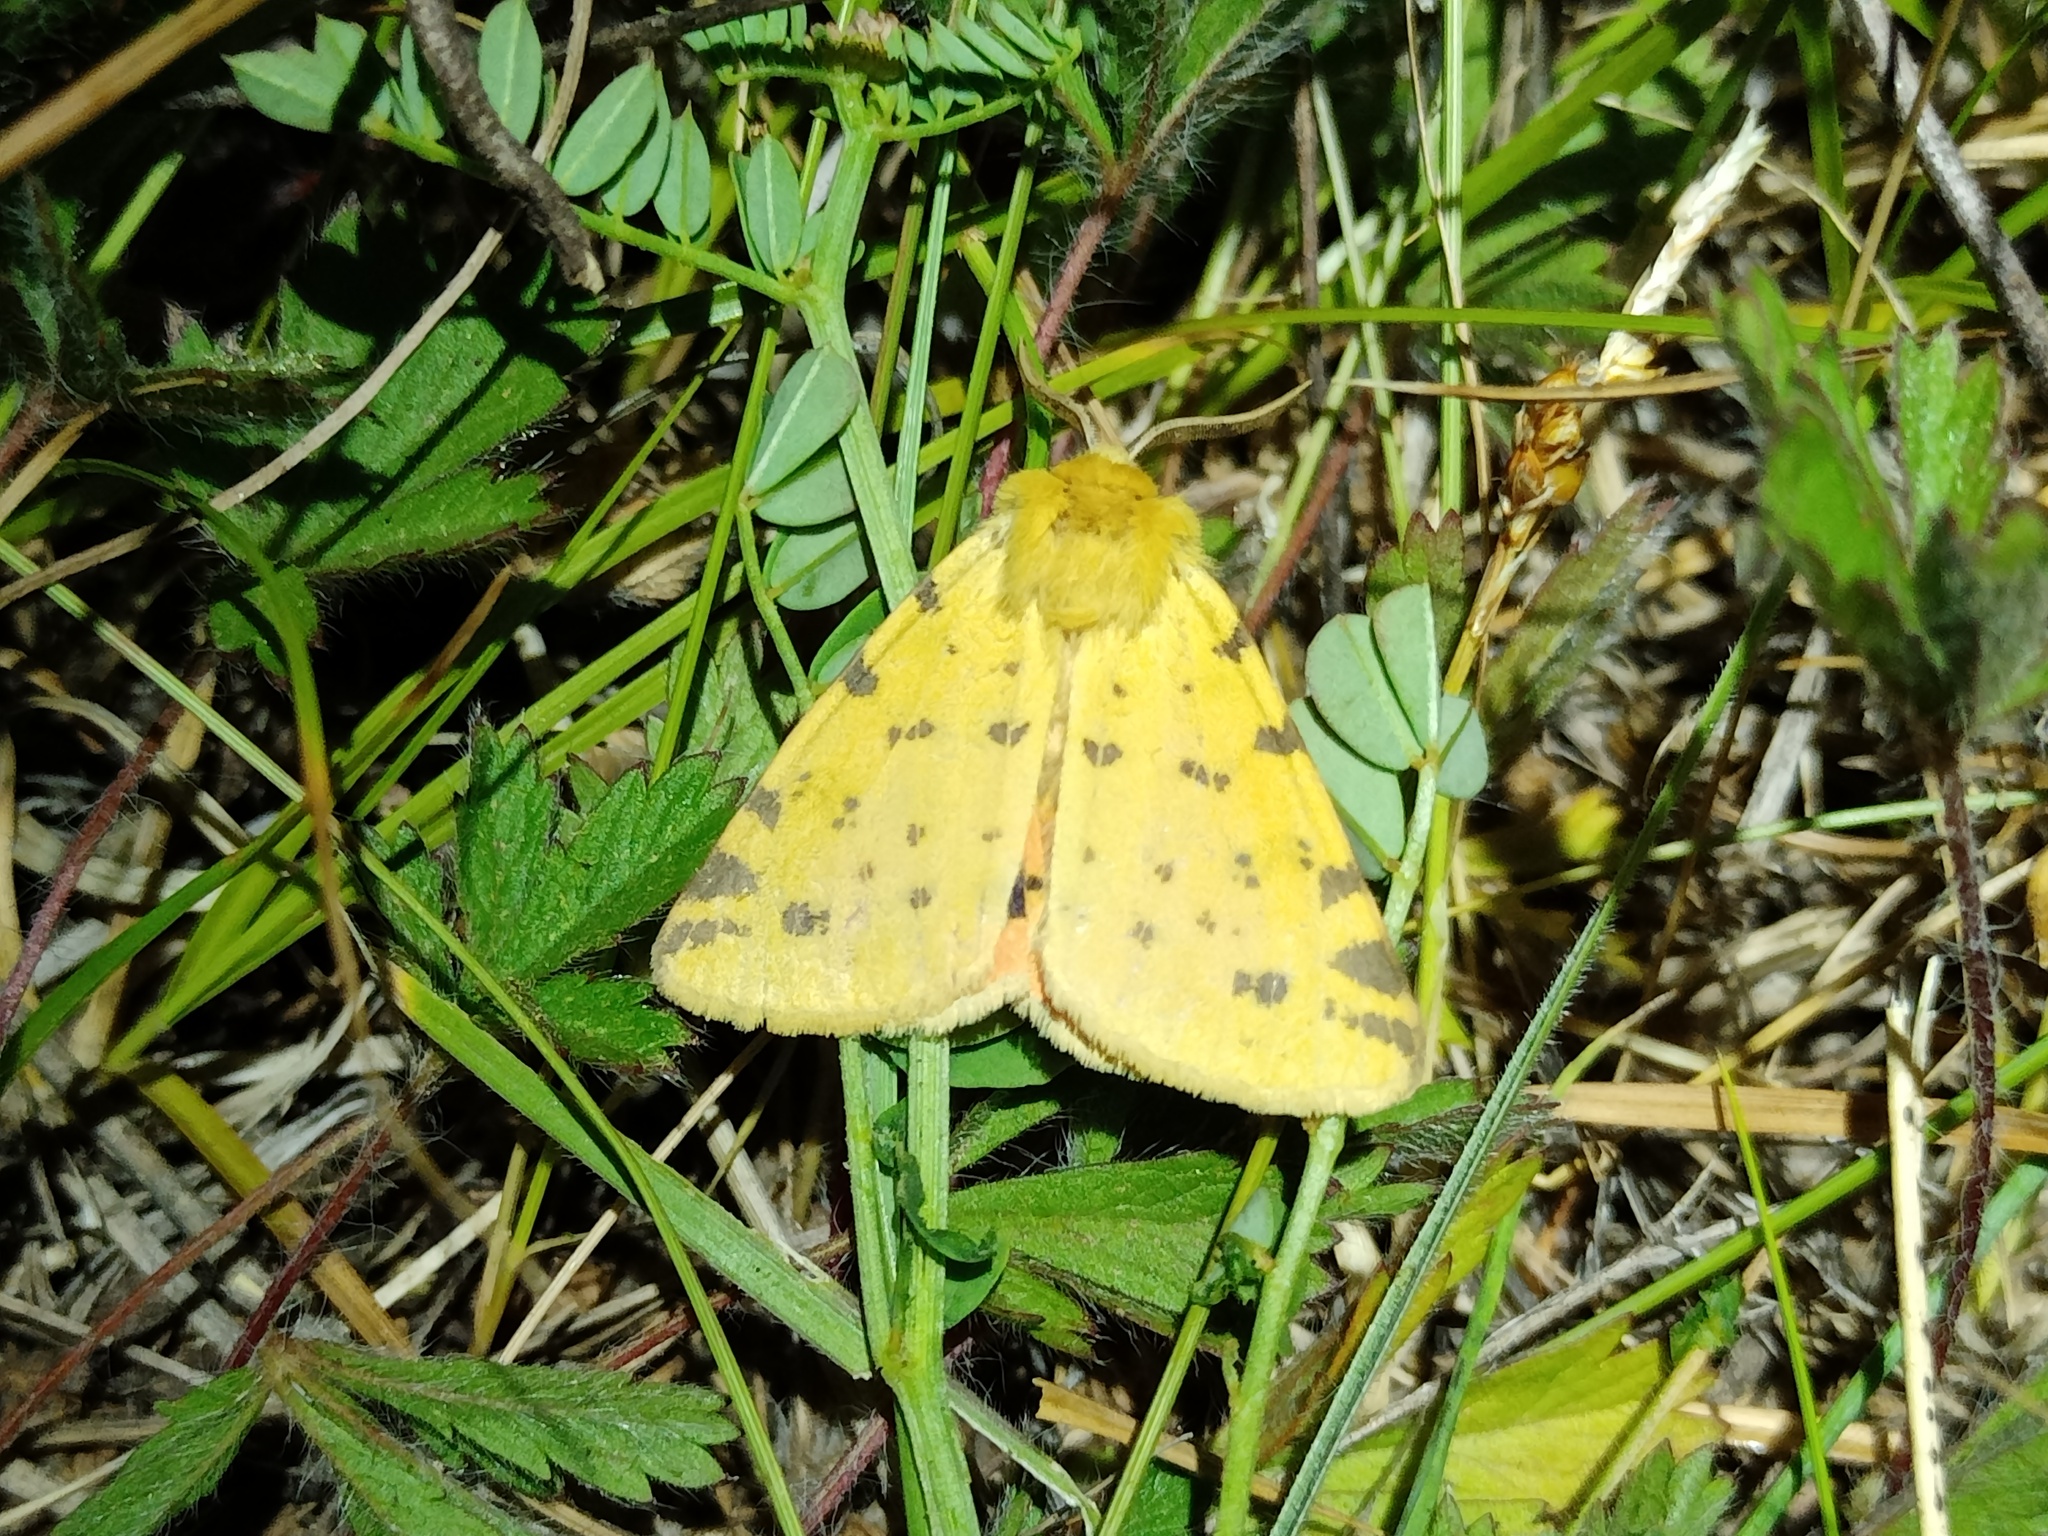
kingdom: Animalia
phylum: Arthropoda
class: Insecta
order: Lepidoptera
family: Erebidae
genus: Rhyparia
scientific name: Rhyparia purpurata
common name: Purple tiger
